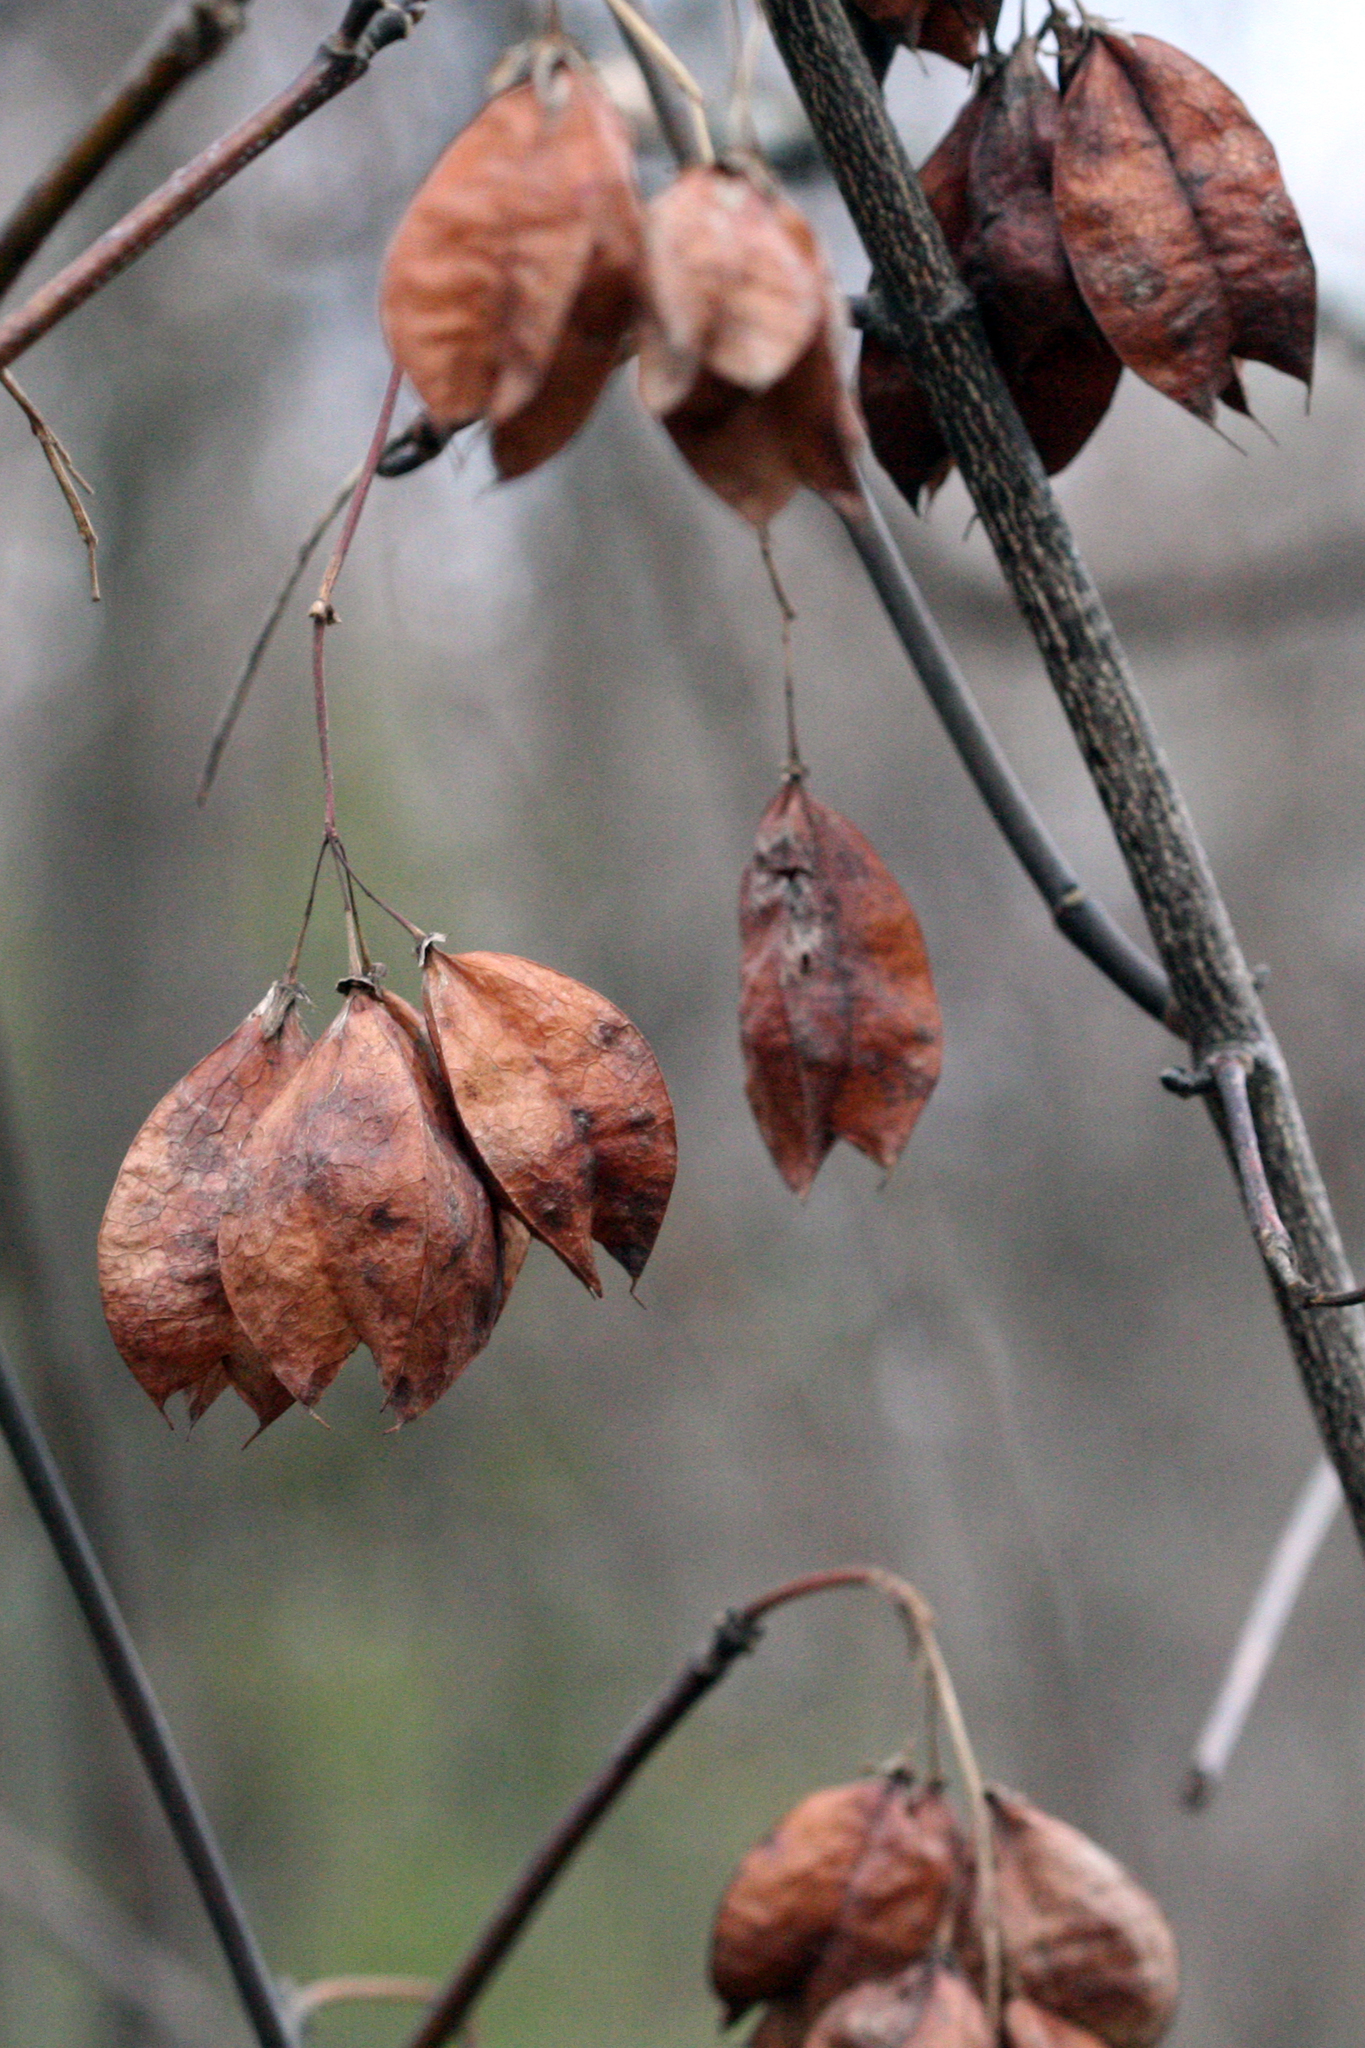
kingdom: Plantae
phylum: Tracheophyta
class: Magnoliopsida
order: Crossosomatales
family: Staphyleaceae
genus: Staphylea
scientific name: Staphylea trifolia
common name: American bladdernut
